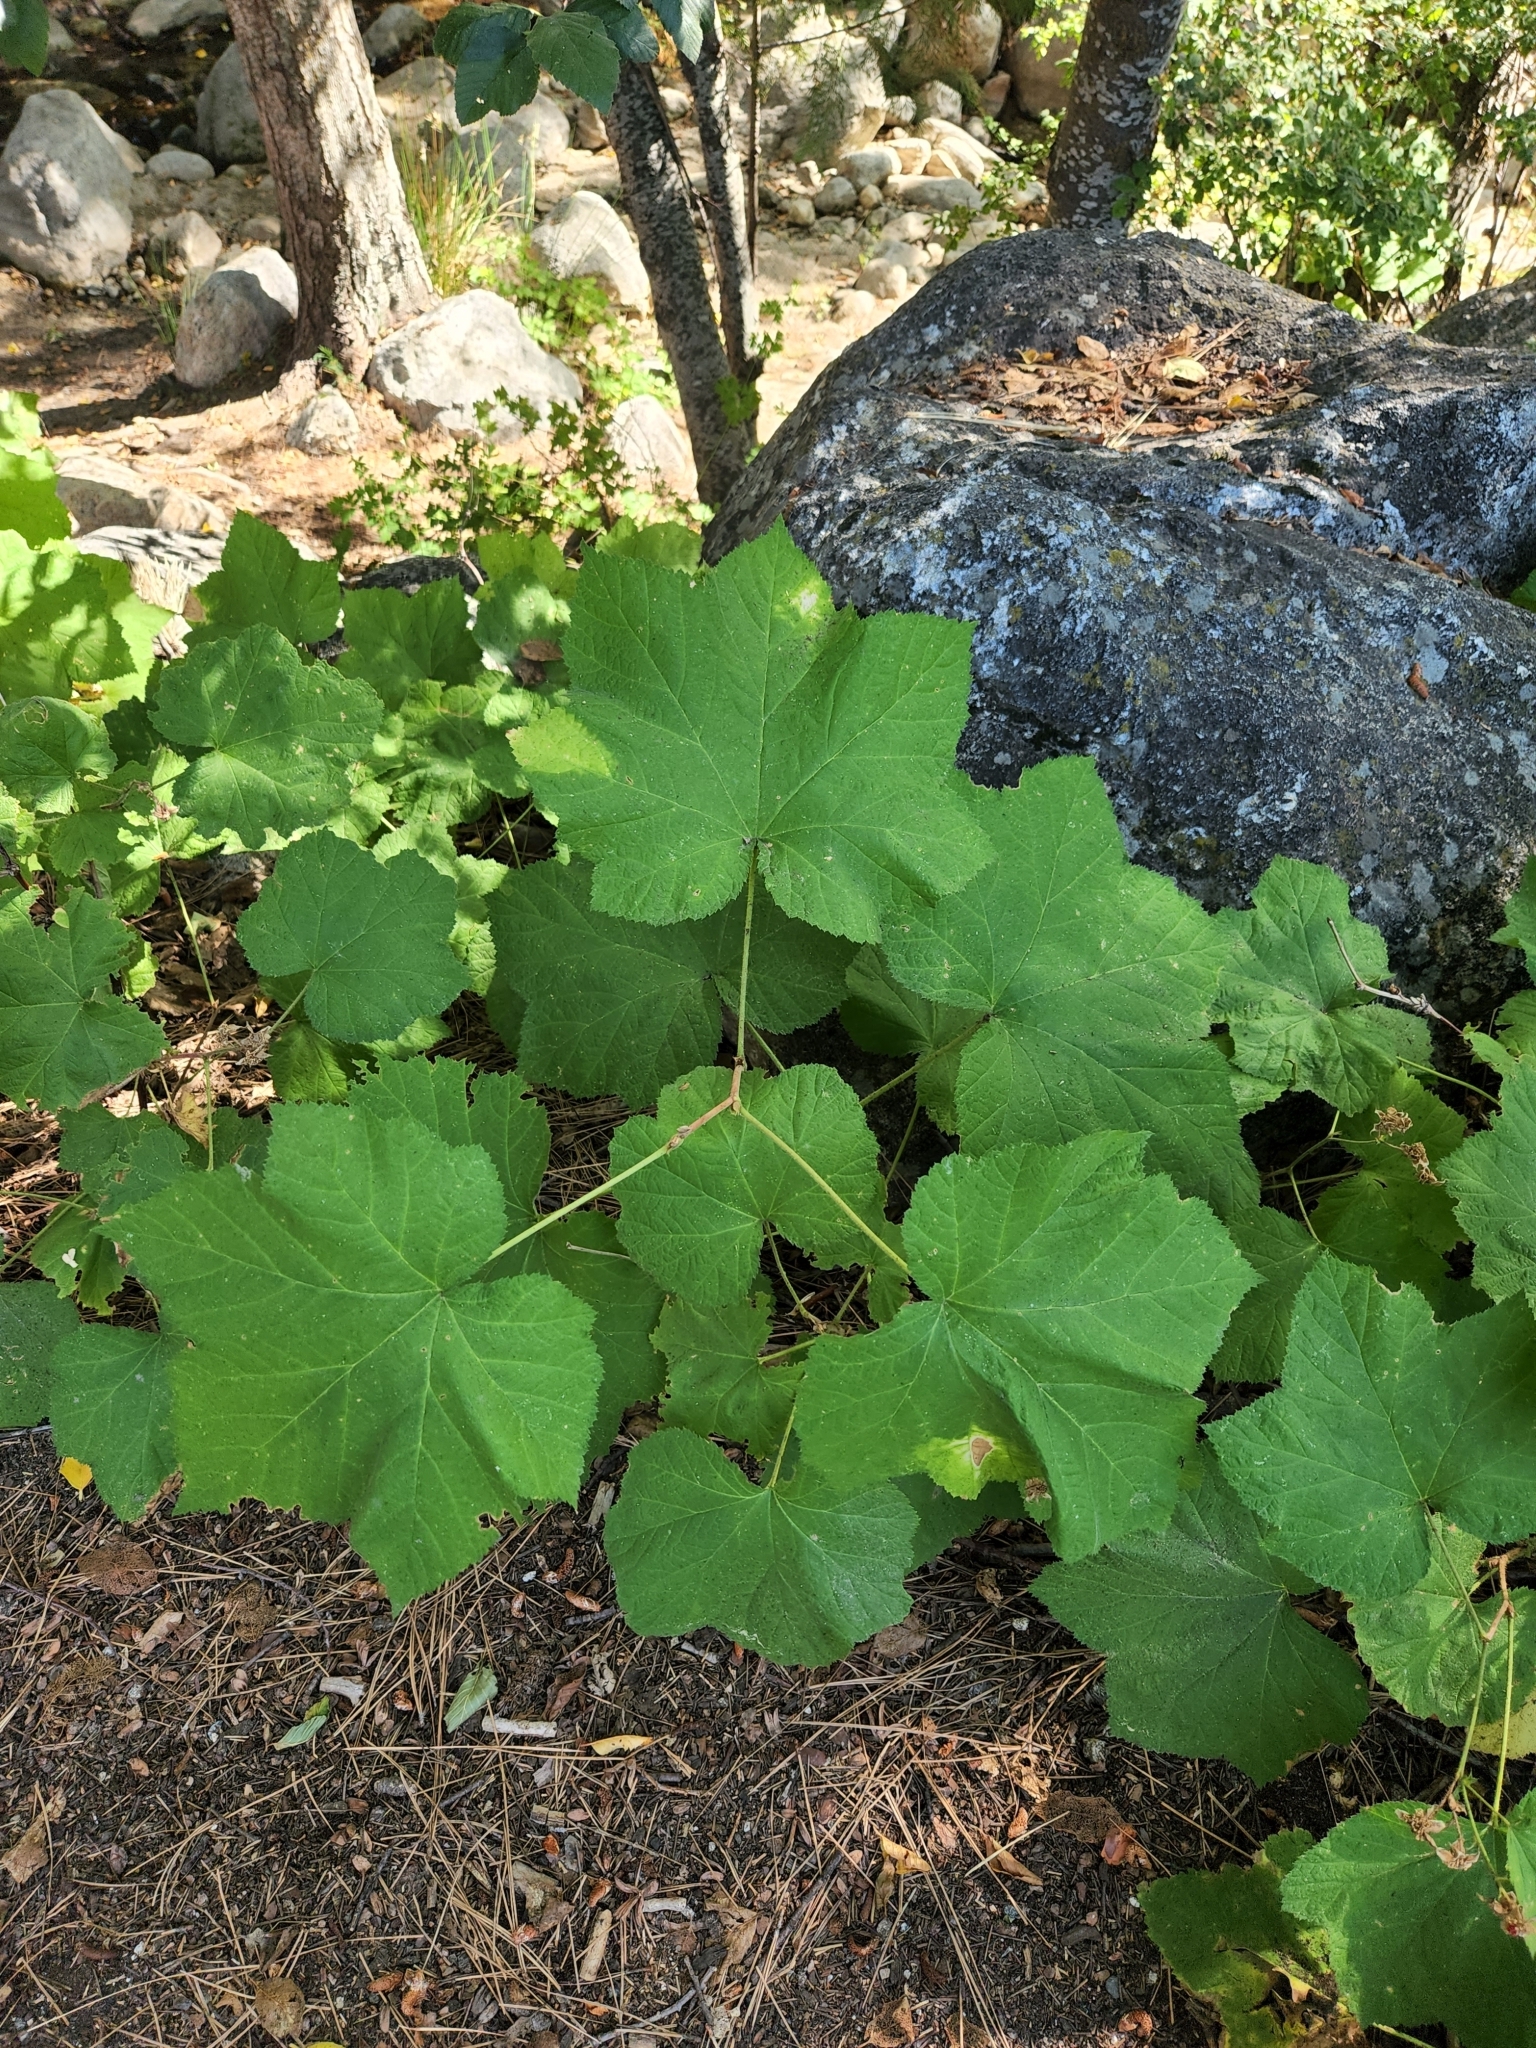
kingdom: Plantae
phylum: Tracheophyta
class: Magnoliopsida
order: Rosales
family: Rosaceae
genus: Rubus
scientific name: Rubus parviflorus
